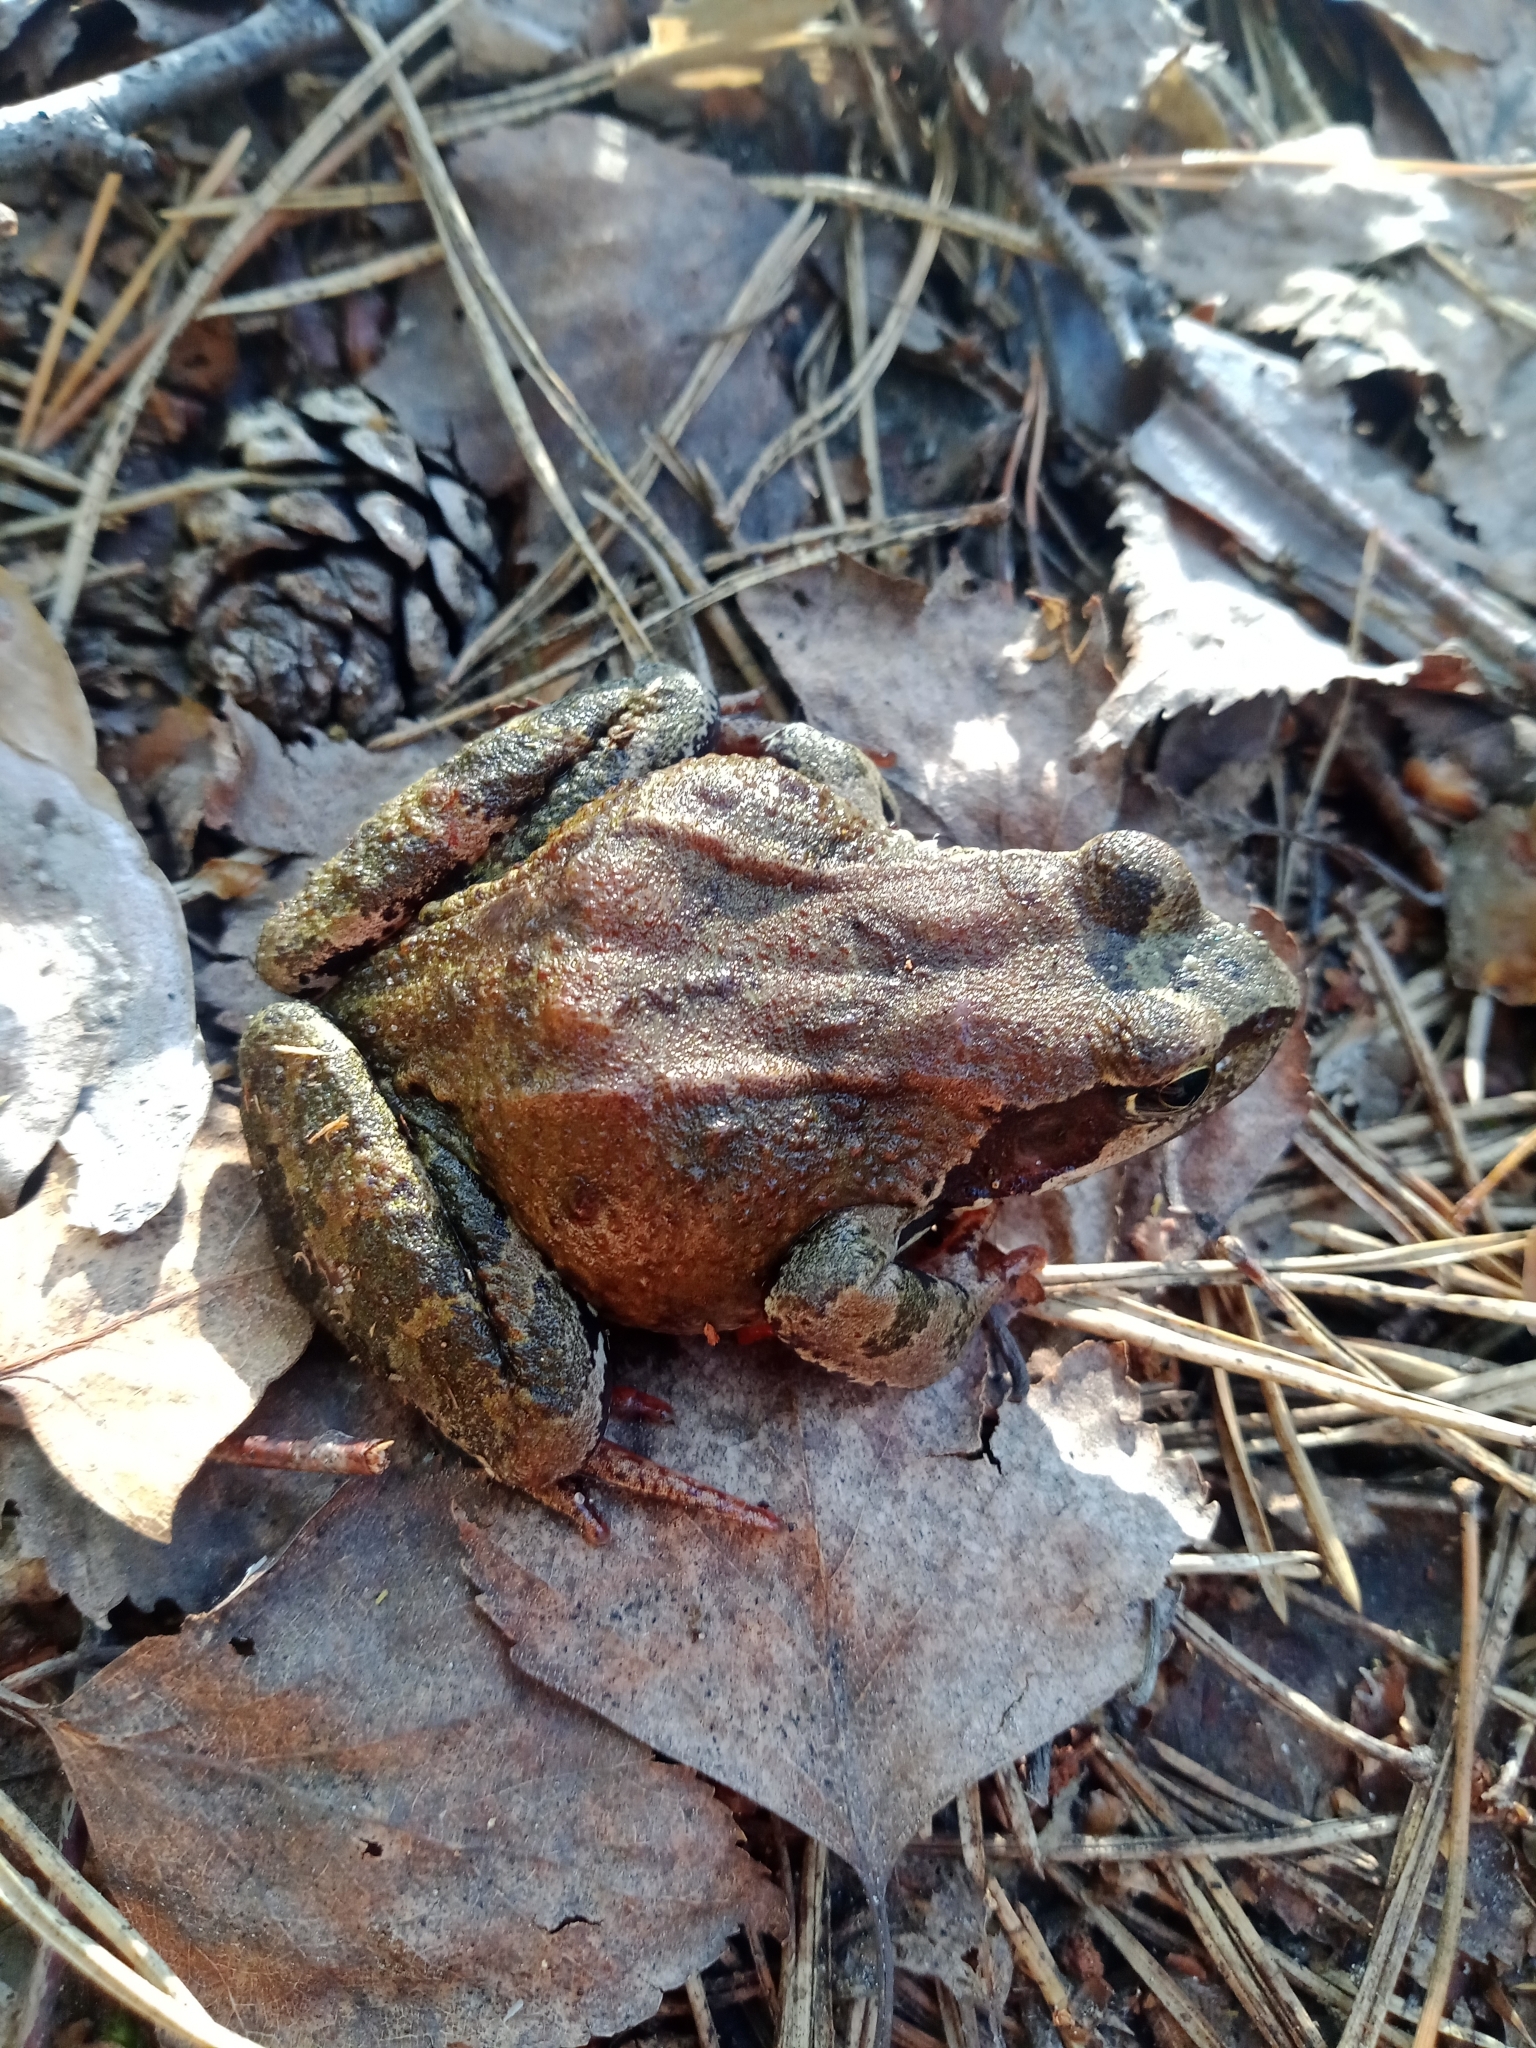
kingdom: Animalia
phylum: Chordata
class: Amphibia
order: Anura
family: Ranidae
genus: Rana
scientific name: Rana temporaria
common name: Common frog
